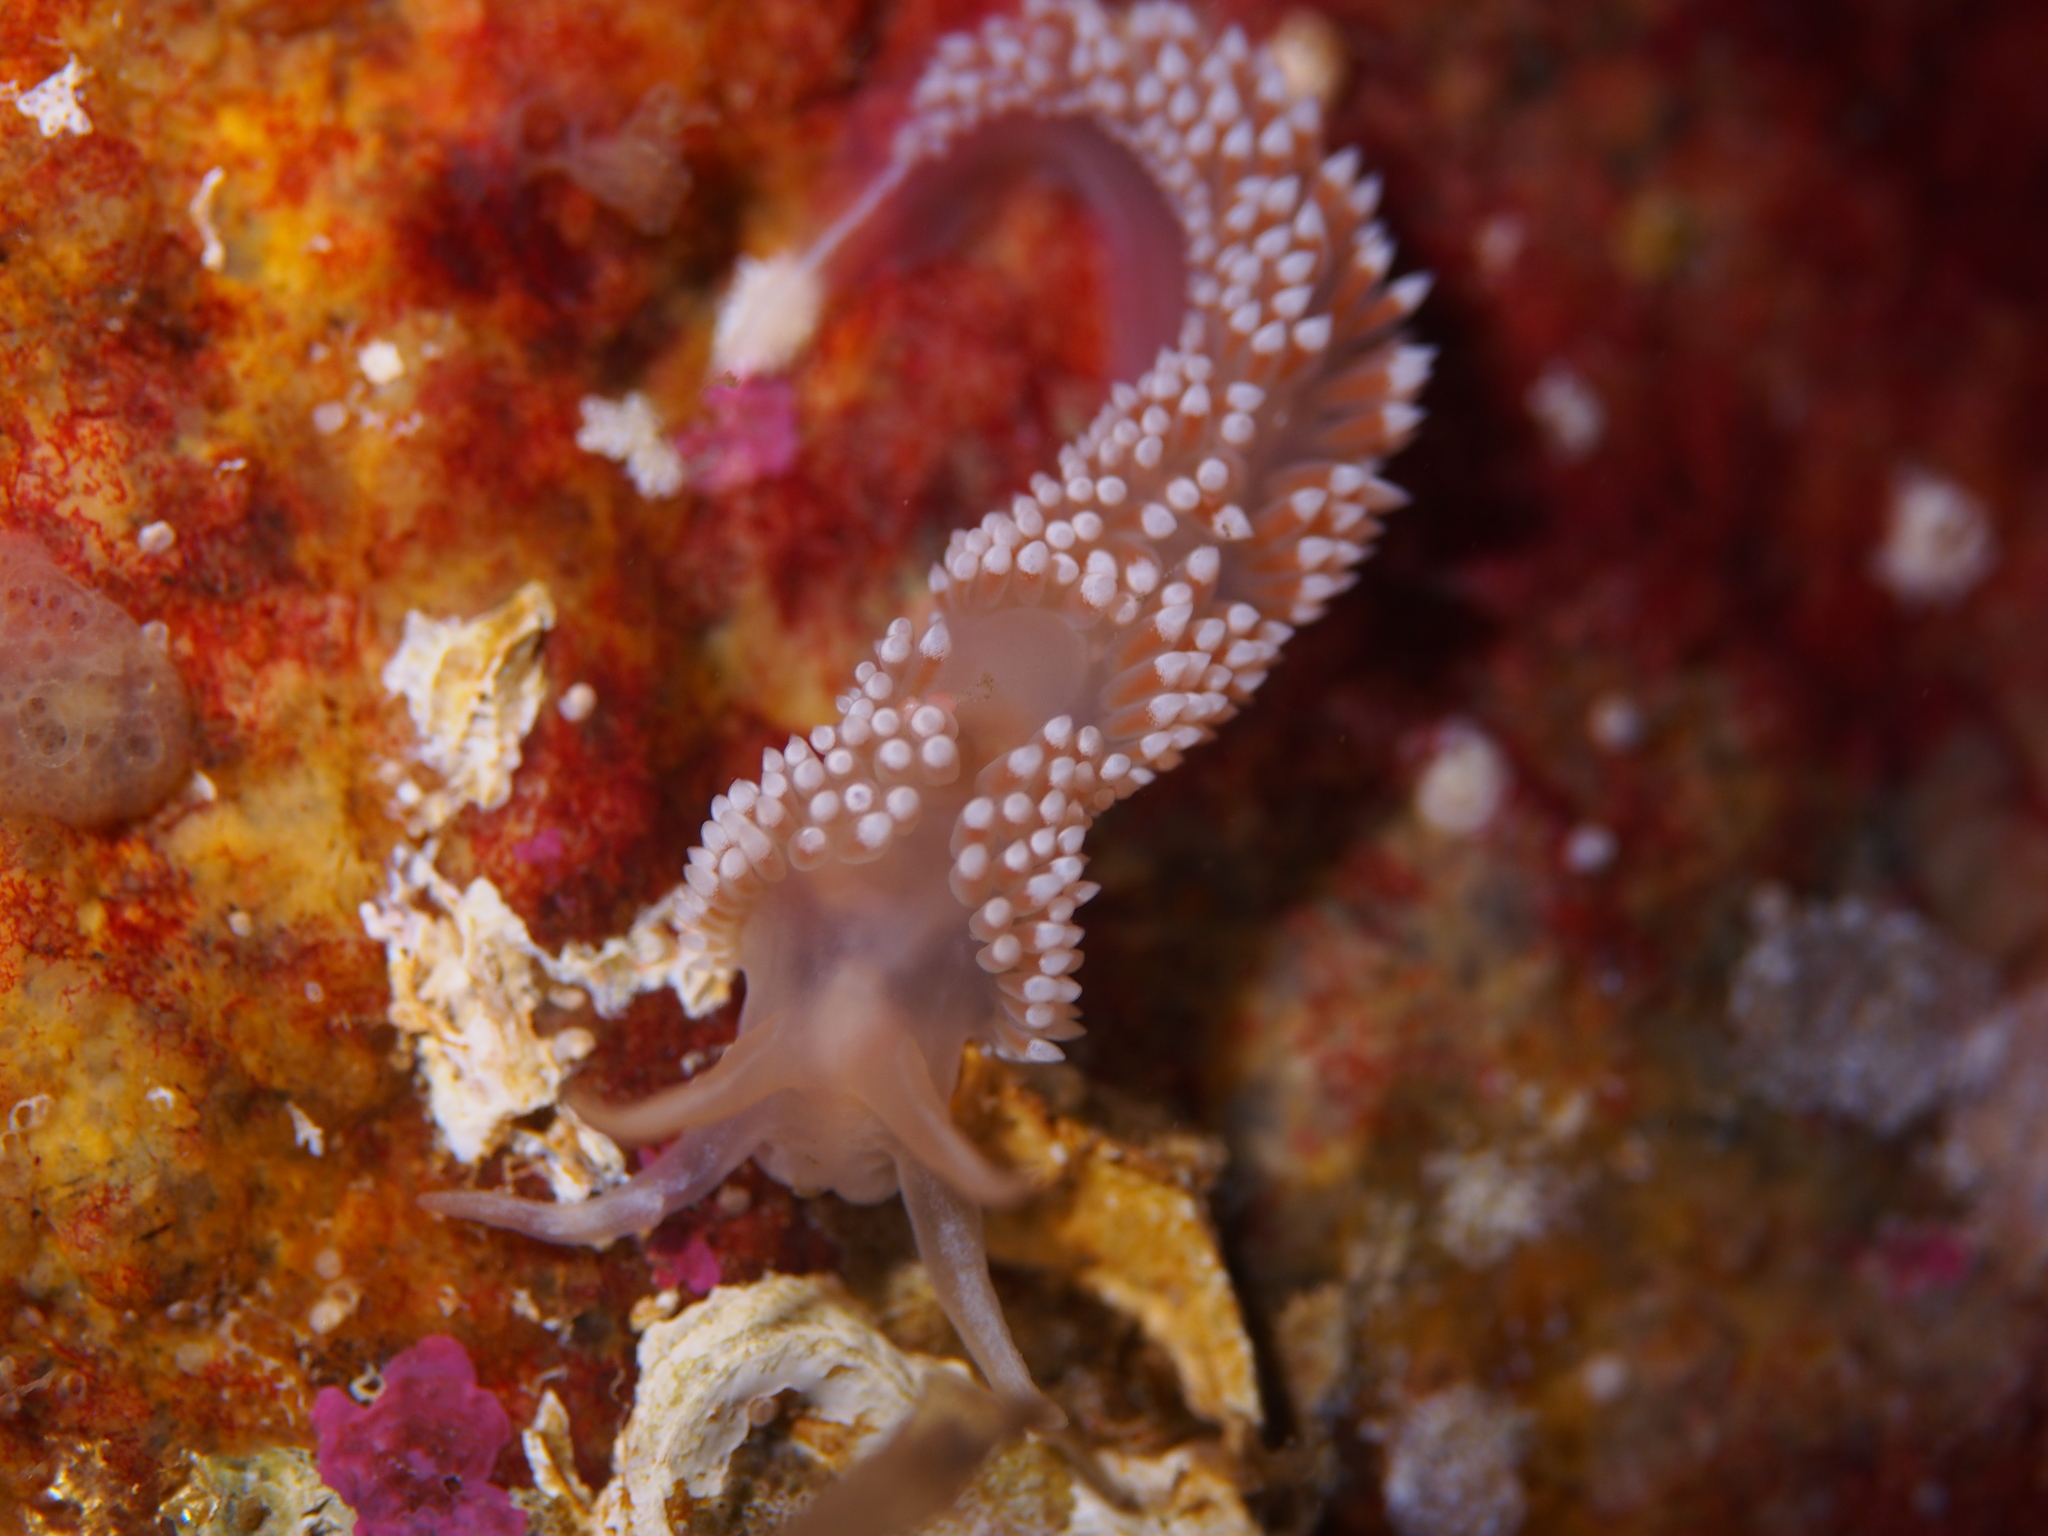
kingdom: Animalia
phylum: Mollusca
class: Gastropoda
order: Nudibranchia
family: Coryphellidae
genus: Coryphella
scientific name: Coryphella verrucosa
